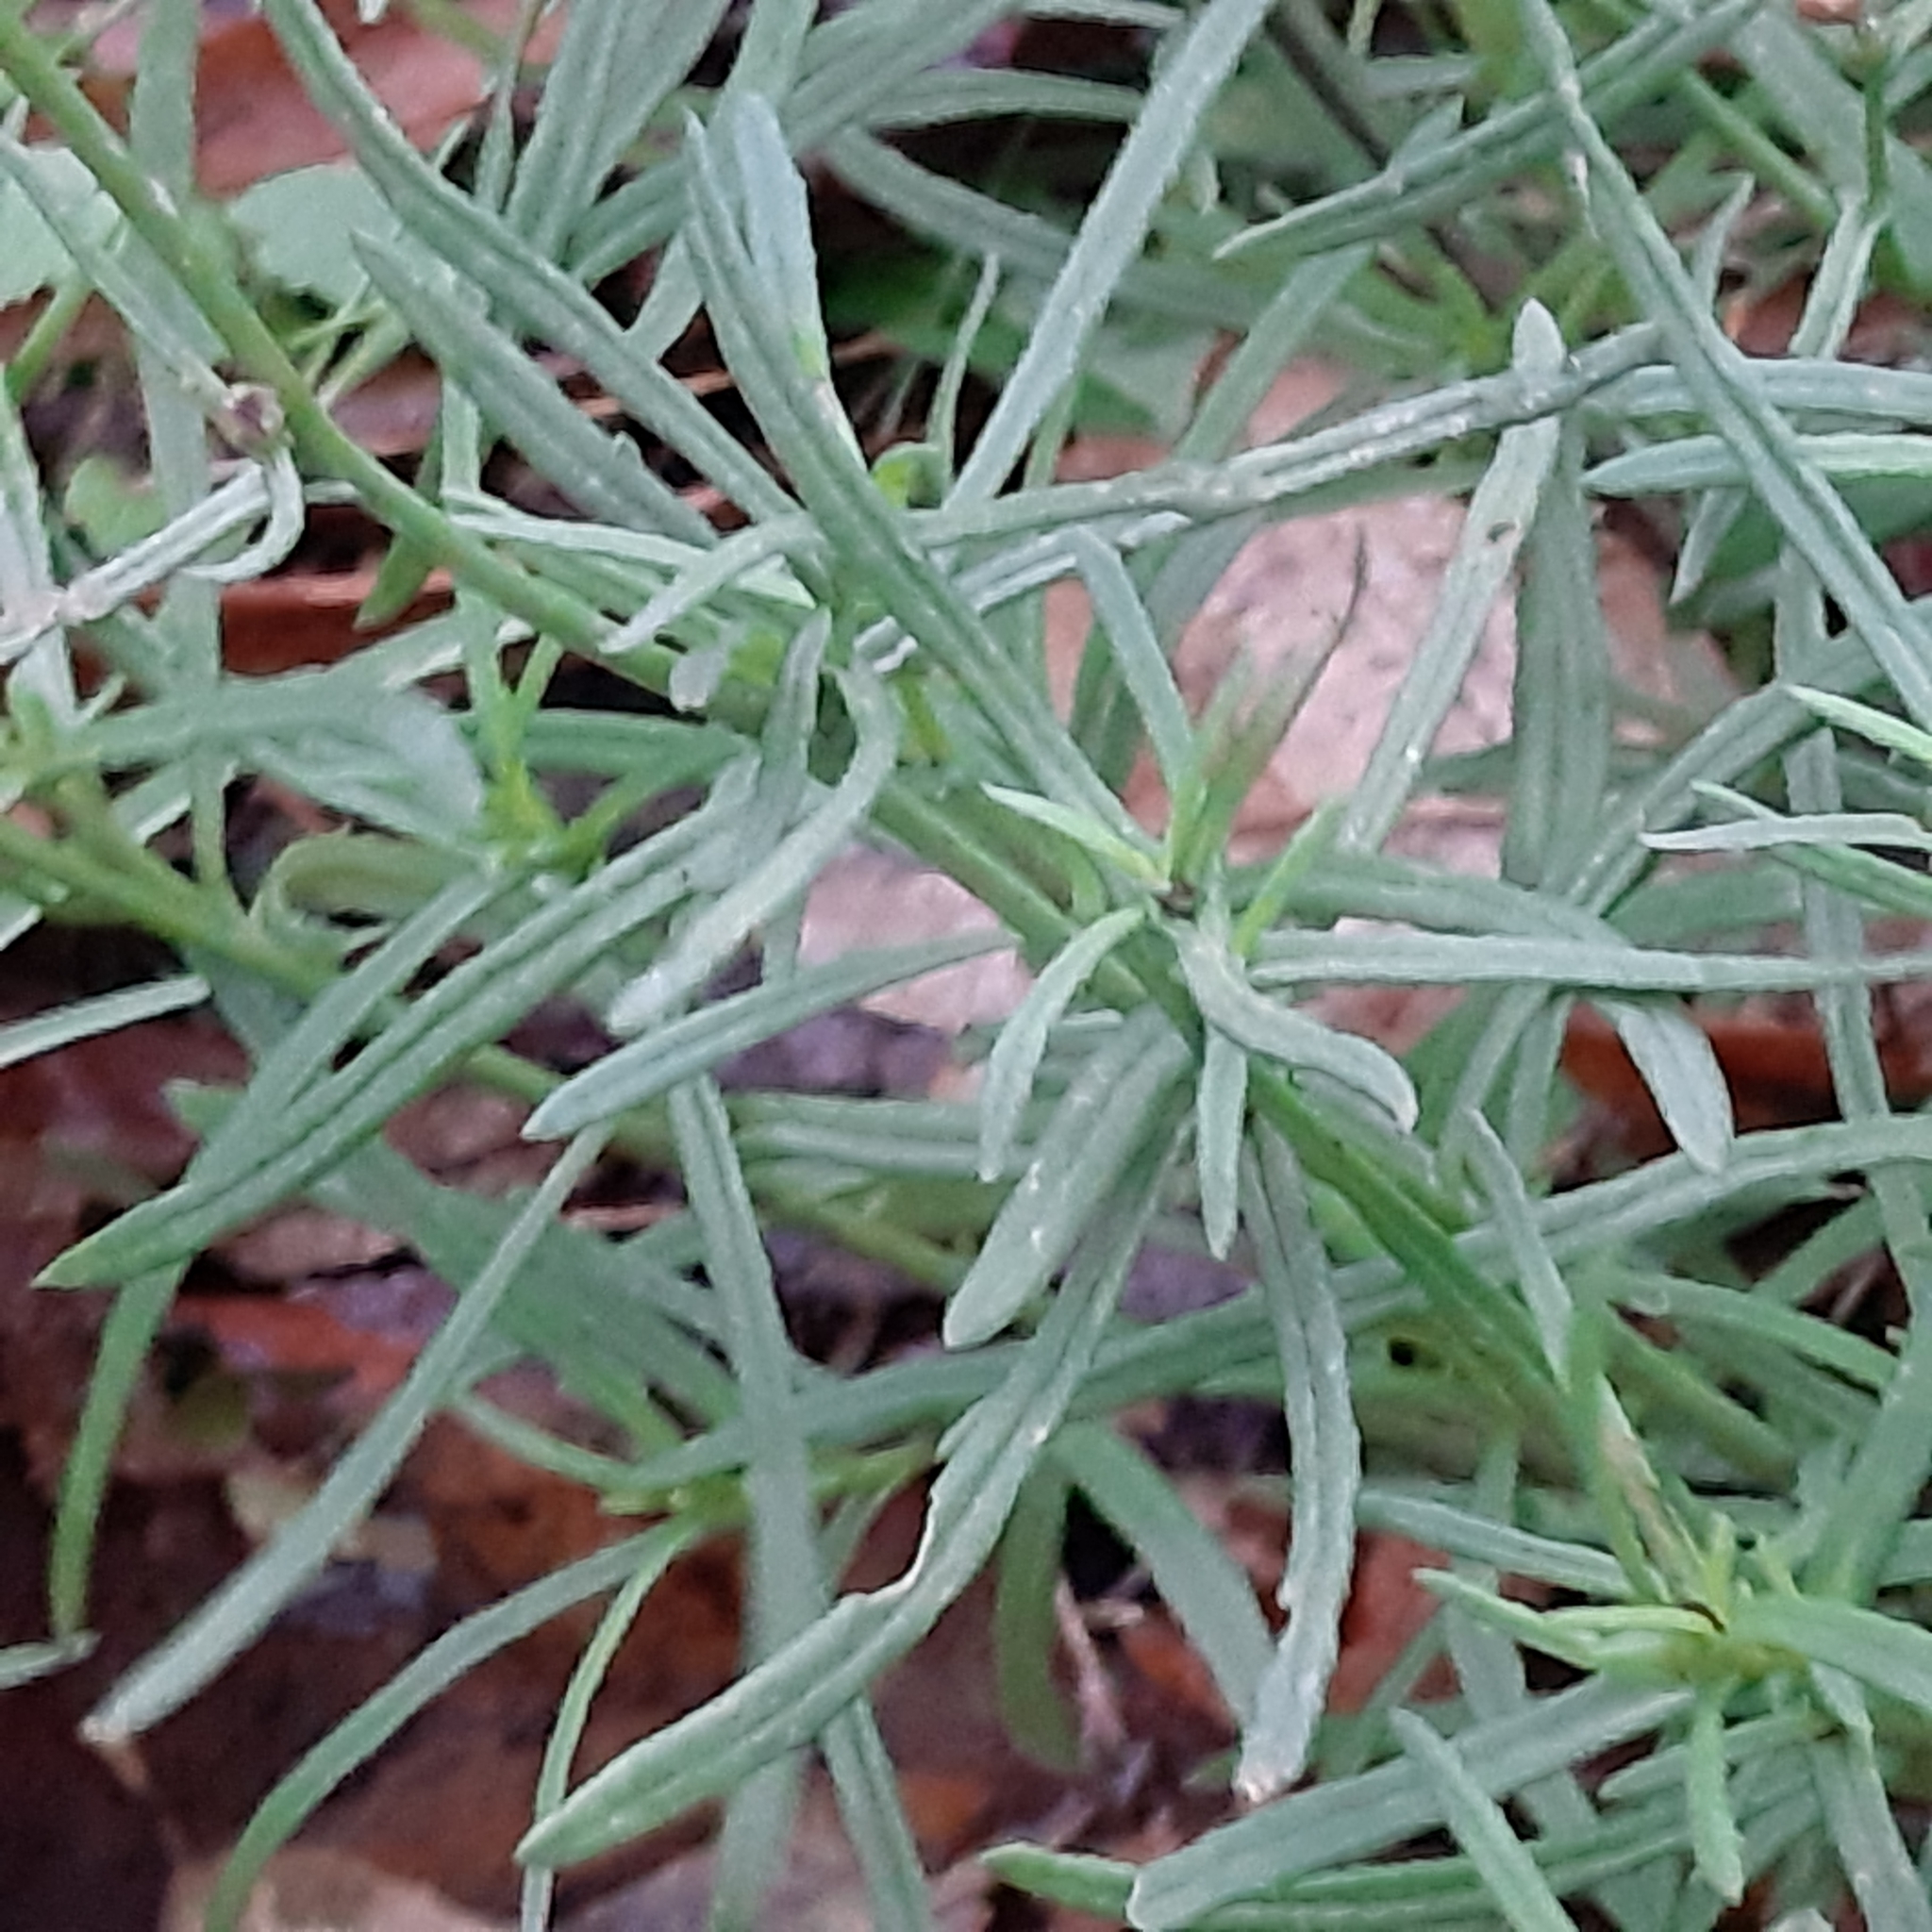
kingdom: Plantae
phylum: Tracheophyta
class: Magnoliopsida
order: Asterales
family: Asteraceae
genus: Senecio
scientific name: Senecio inaequidens
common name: Narrow-leaved ragwort
